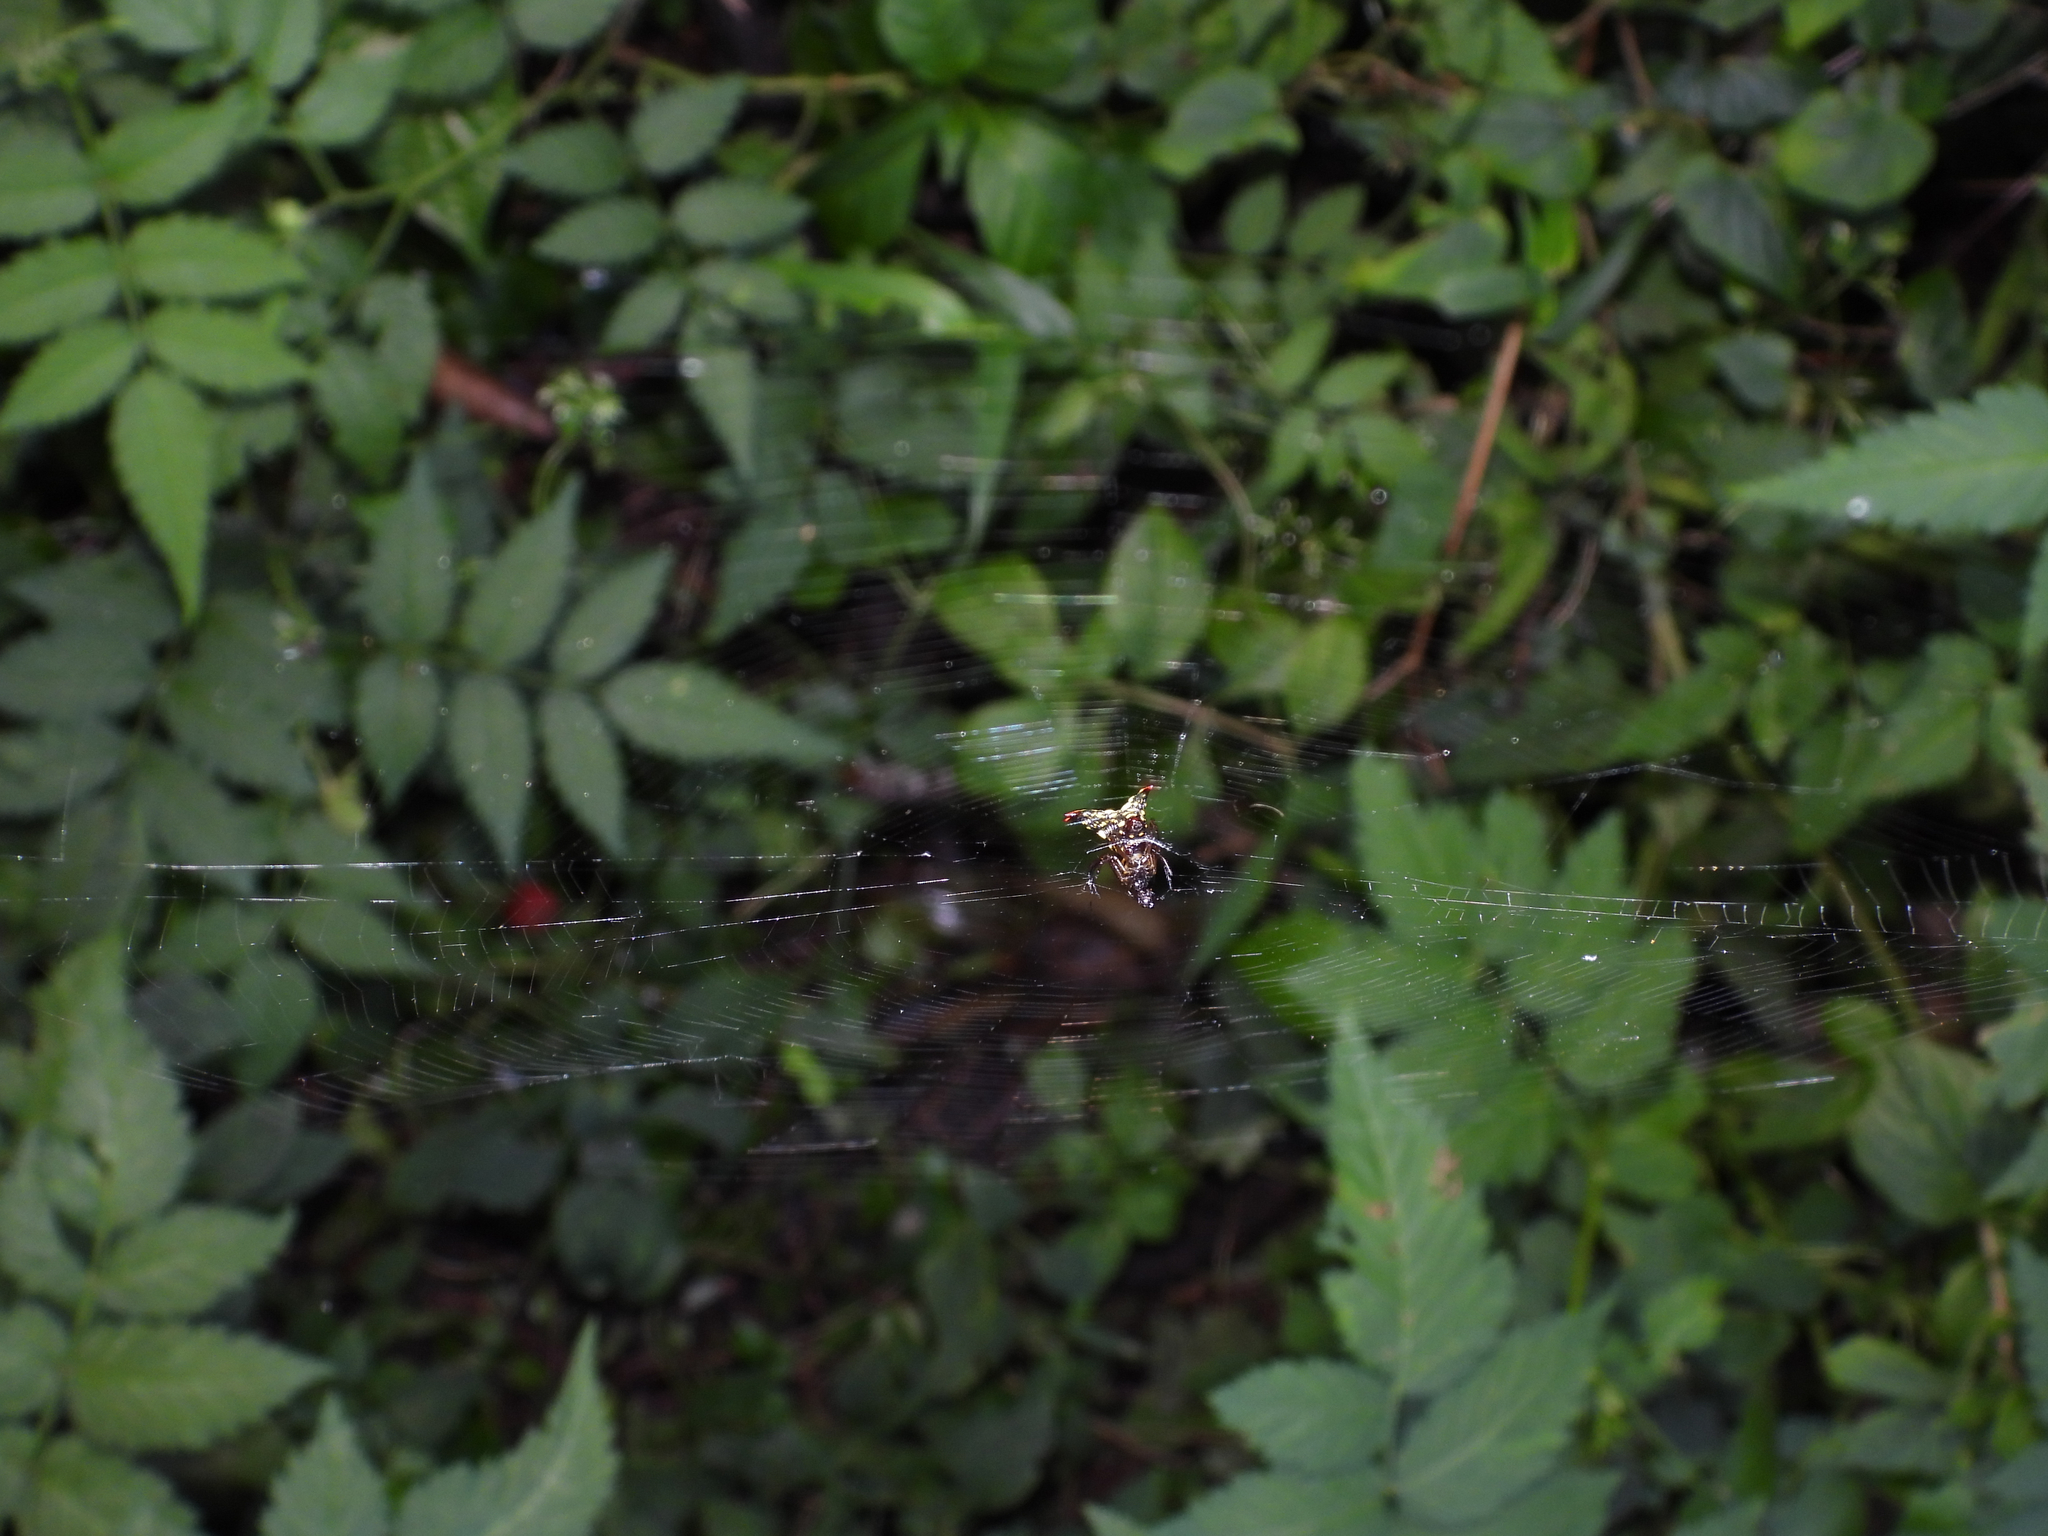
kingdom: Animalia
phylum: Arthropoda
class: Arachnida
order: Araneae
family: Araneidae
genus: Micrathena
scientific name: Micrathena lucasi
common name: Orb weavers
